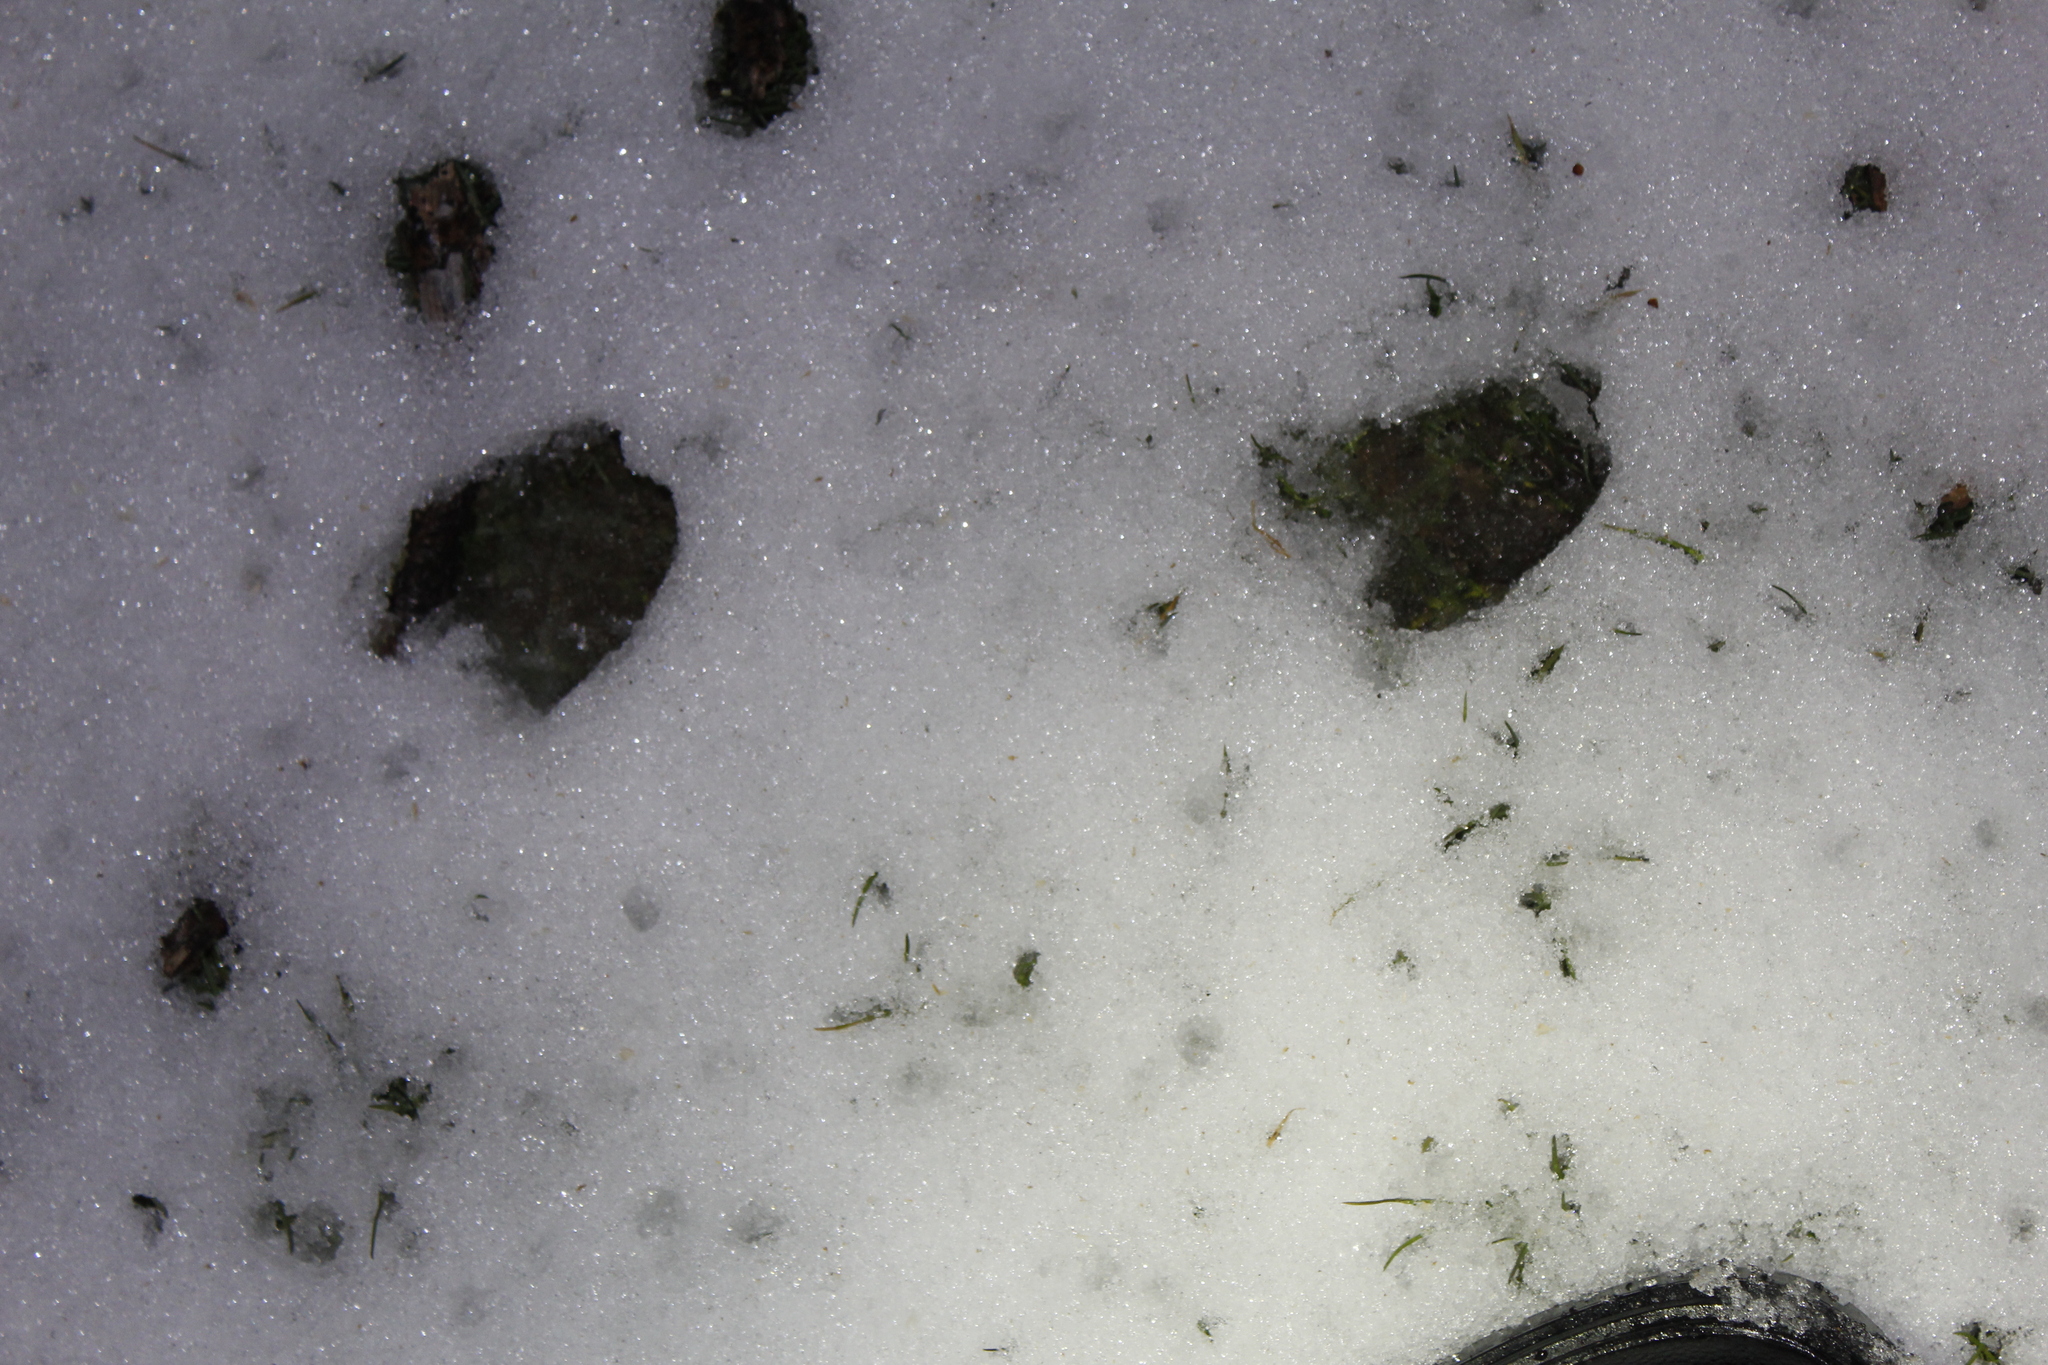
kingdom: Animalia
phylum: Chordata
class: Mammalia
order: Artiodactyla
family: Cervidae
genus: Odocoileus
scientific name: Odocoileus virginianus
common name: White-tailed deer
